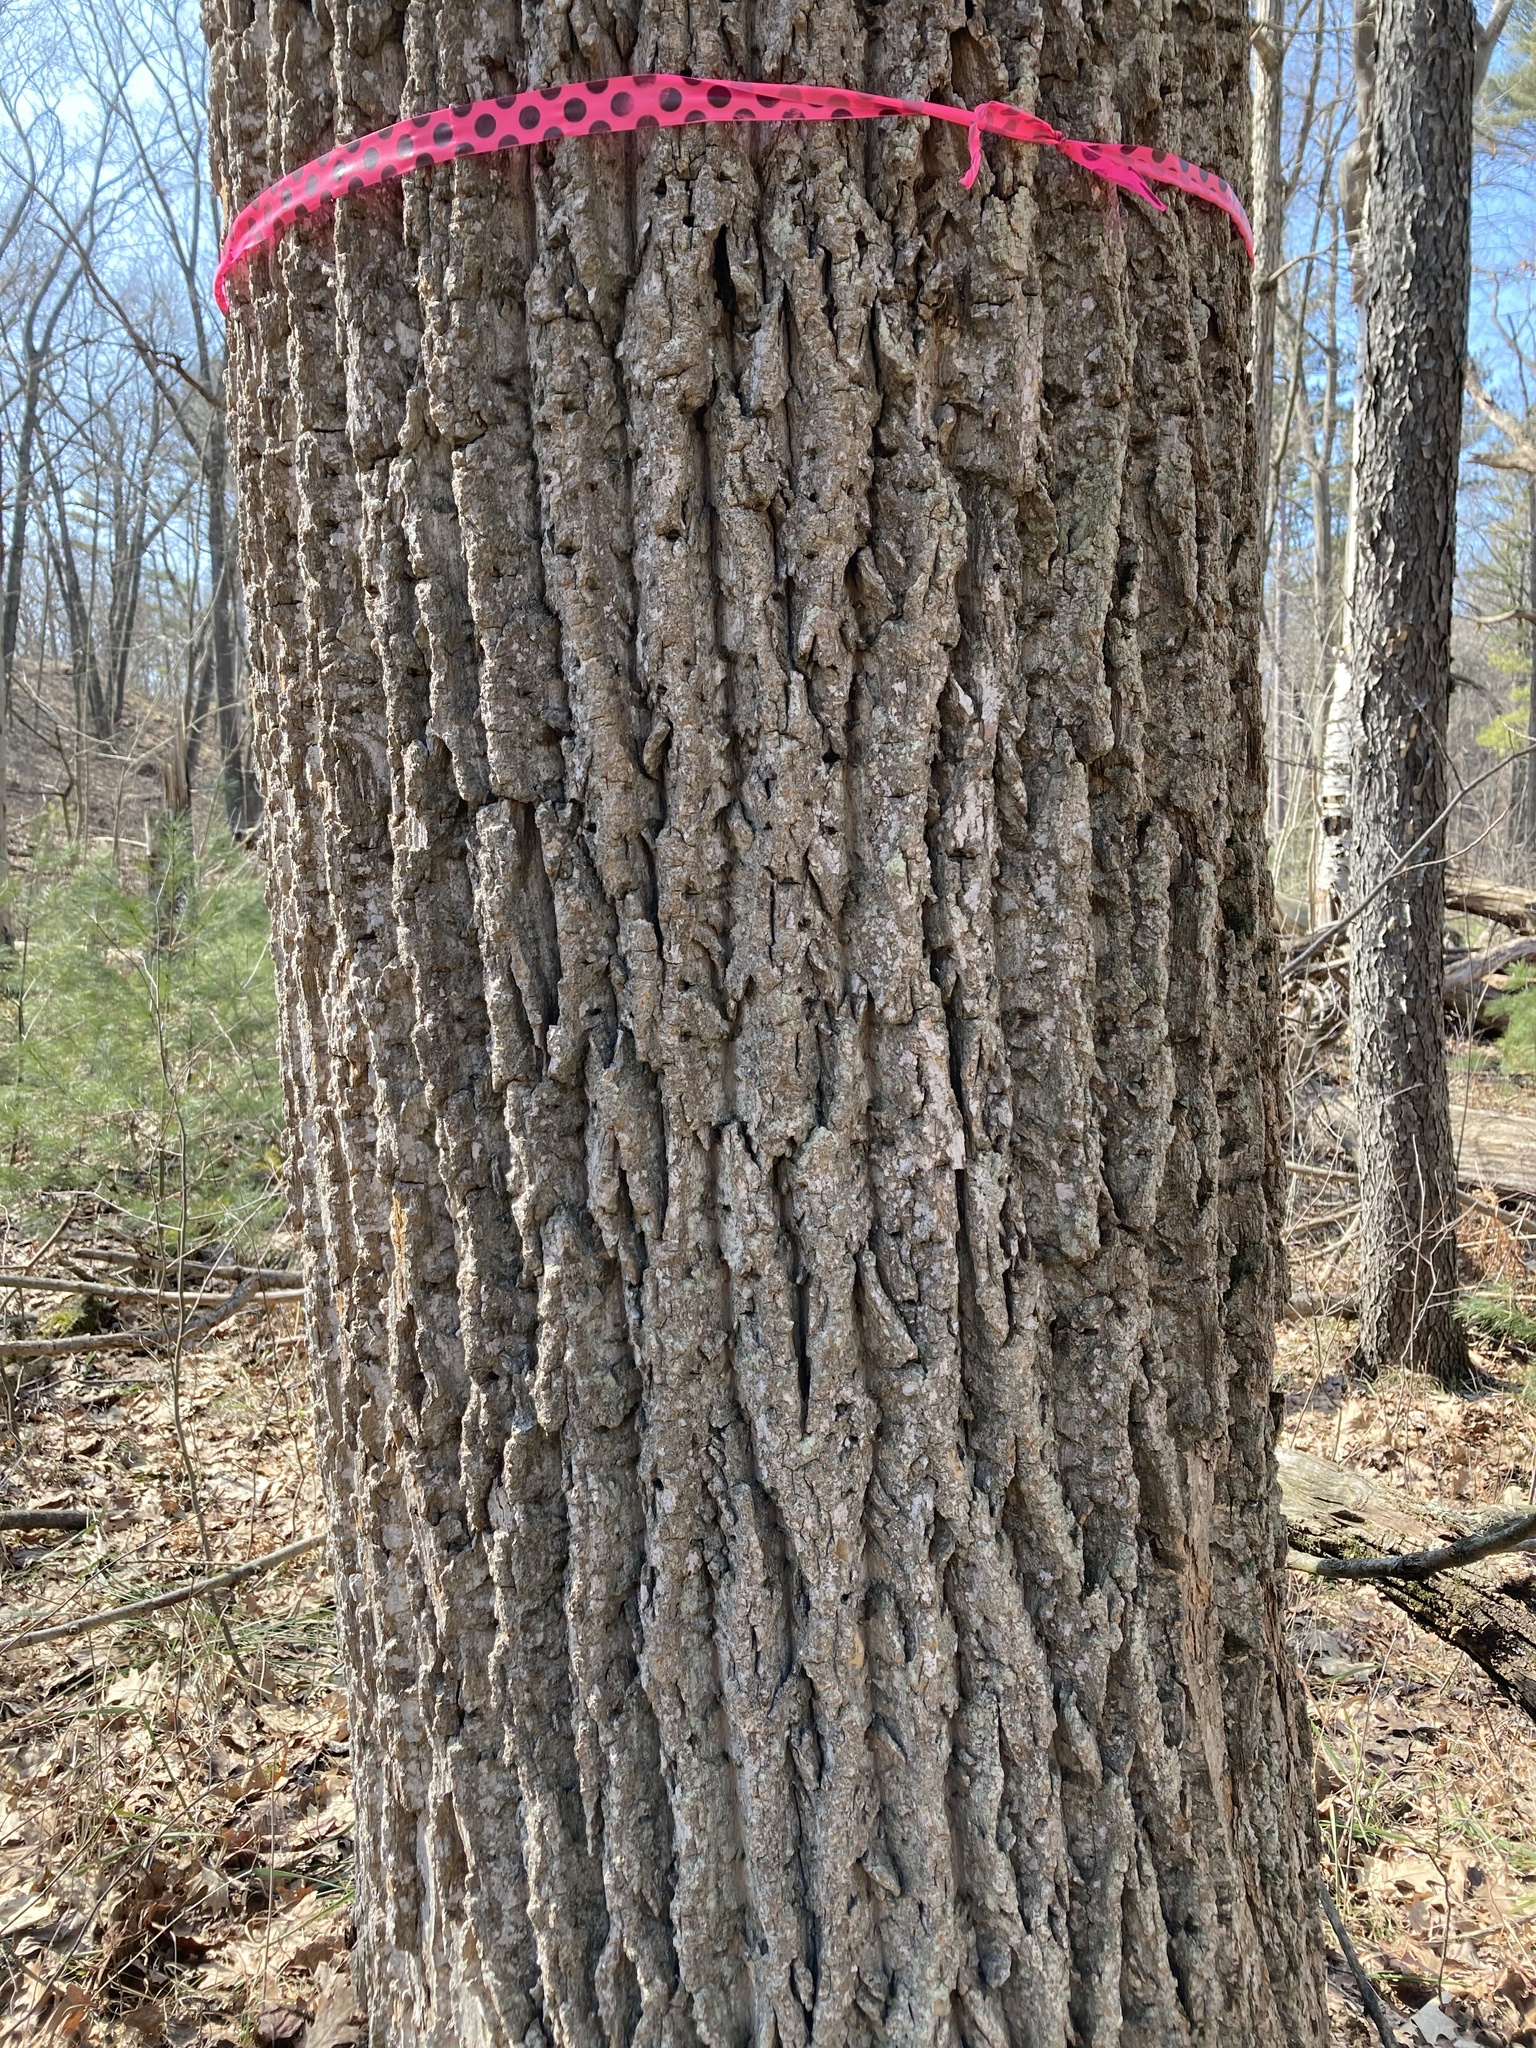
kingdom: Plantae
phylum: Tracheophyta
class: Magnoliopsida
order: Magnoliales
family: Magnoliaceae
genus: Liriodendron
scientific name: Liriodendron tulipifera
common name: Tulip tree
